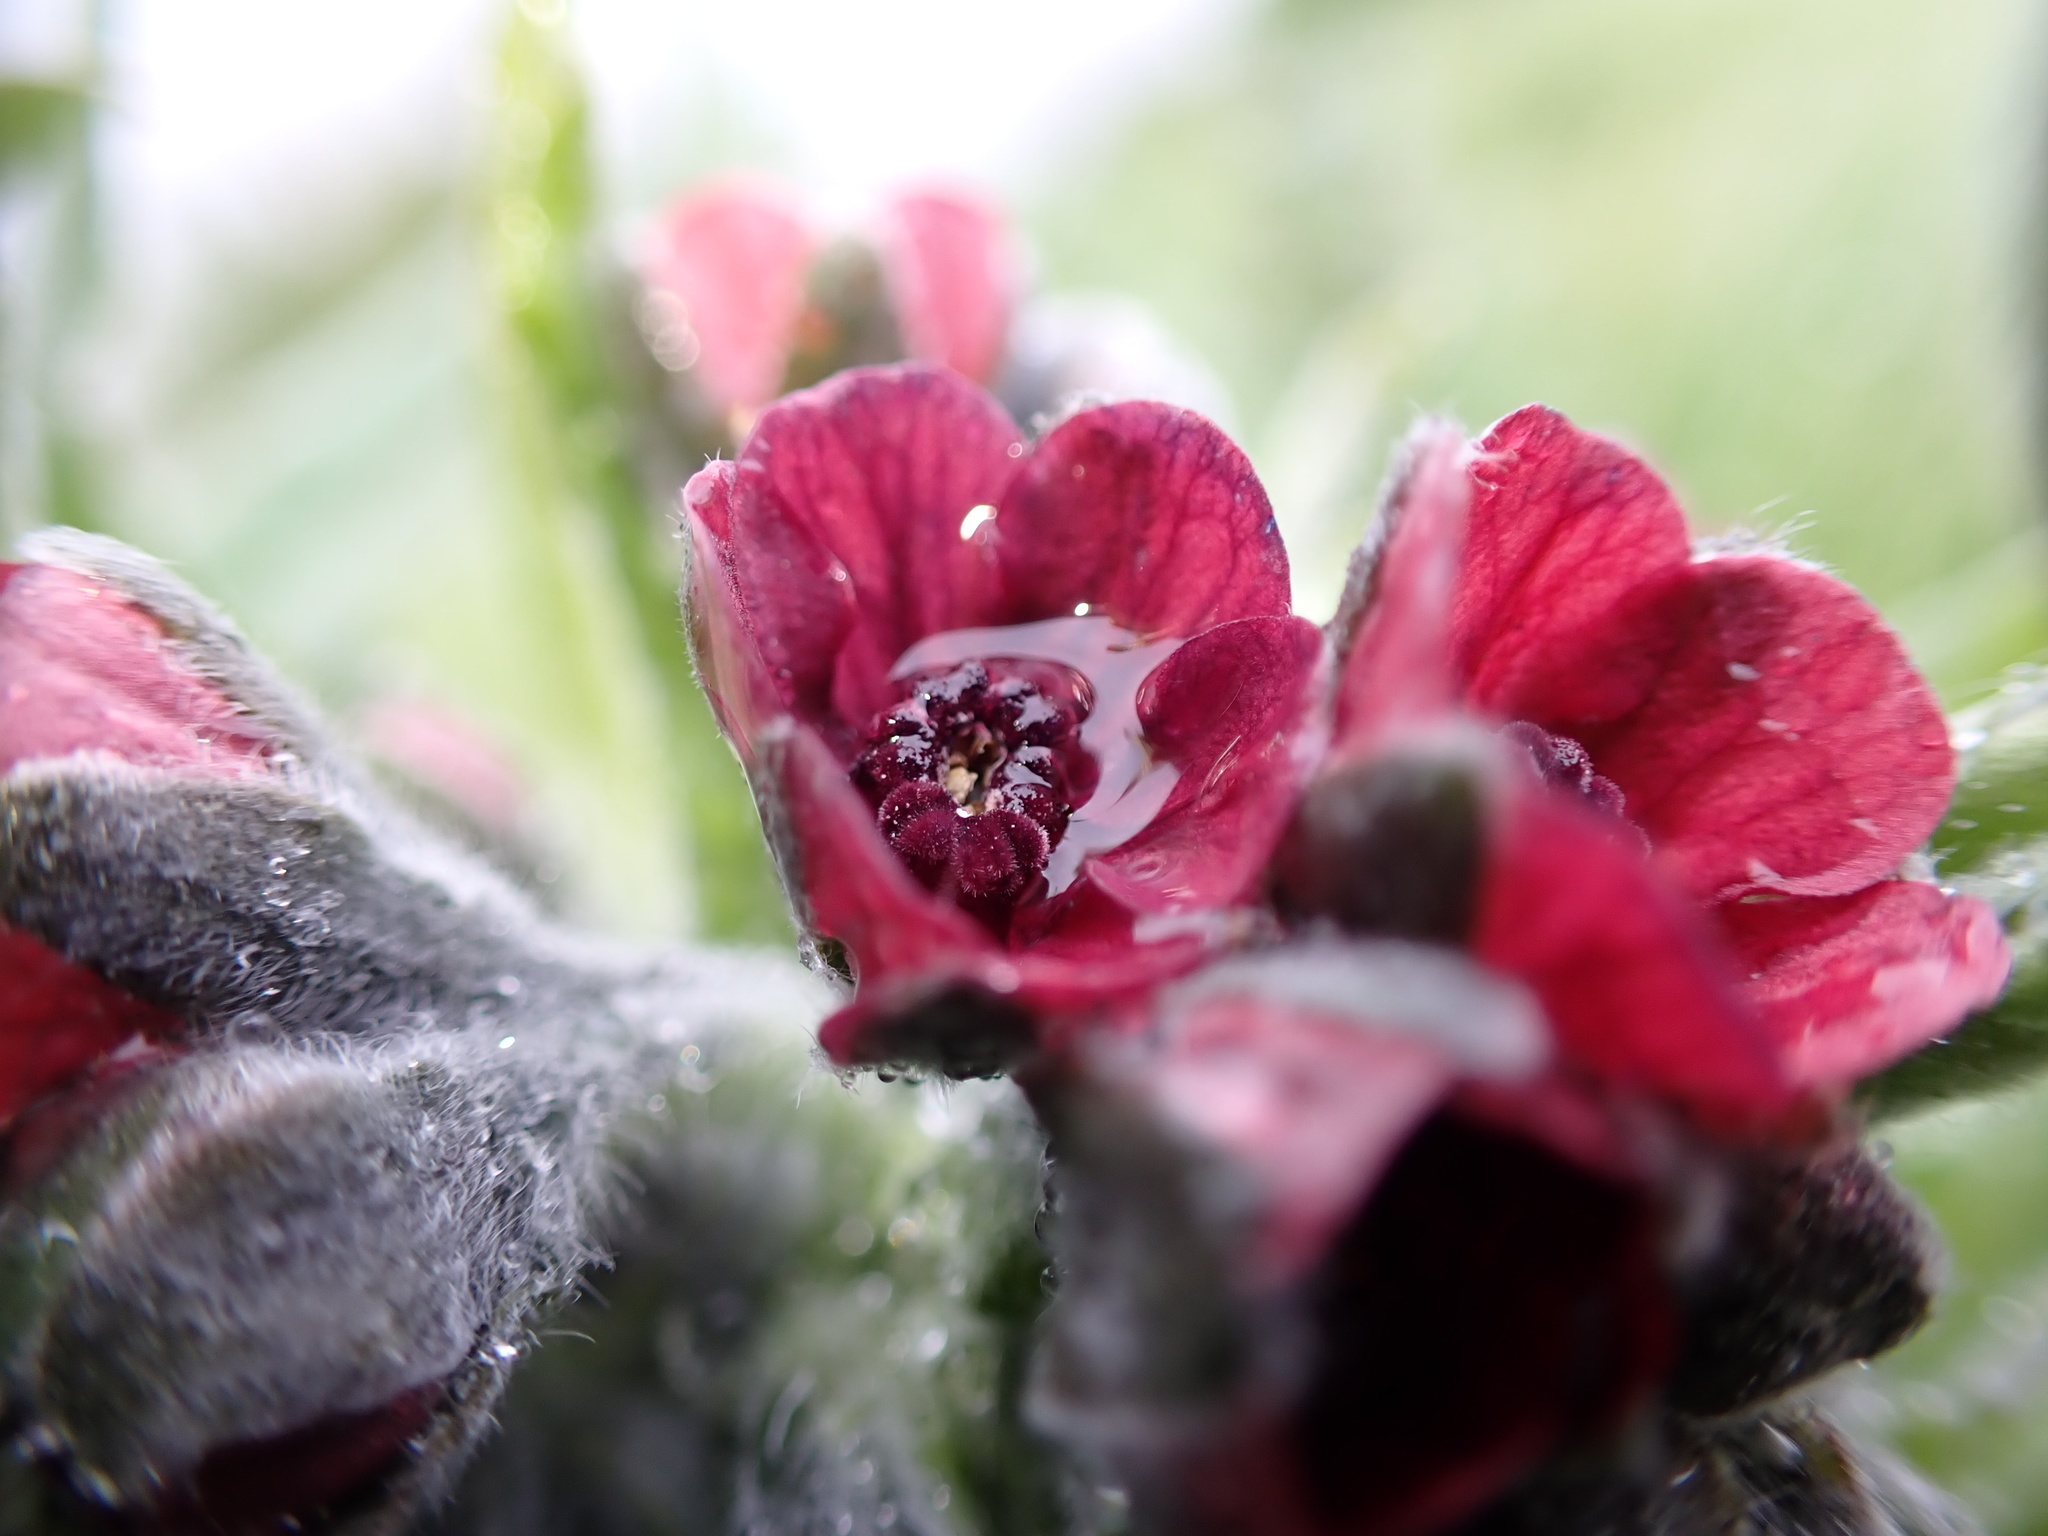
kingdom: Plantae
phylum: Tracheophyta
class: Magnoliopsida
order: Boraginales
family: Boraginaceae
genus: Cynoglossum
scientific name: Cynoglossum officinale
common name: Hound's-tongue
